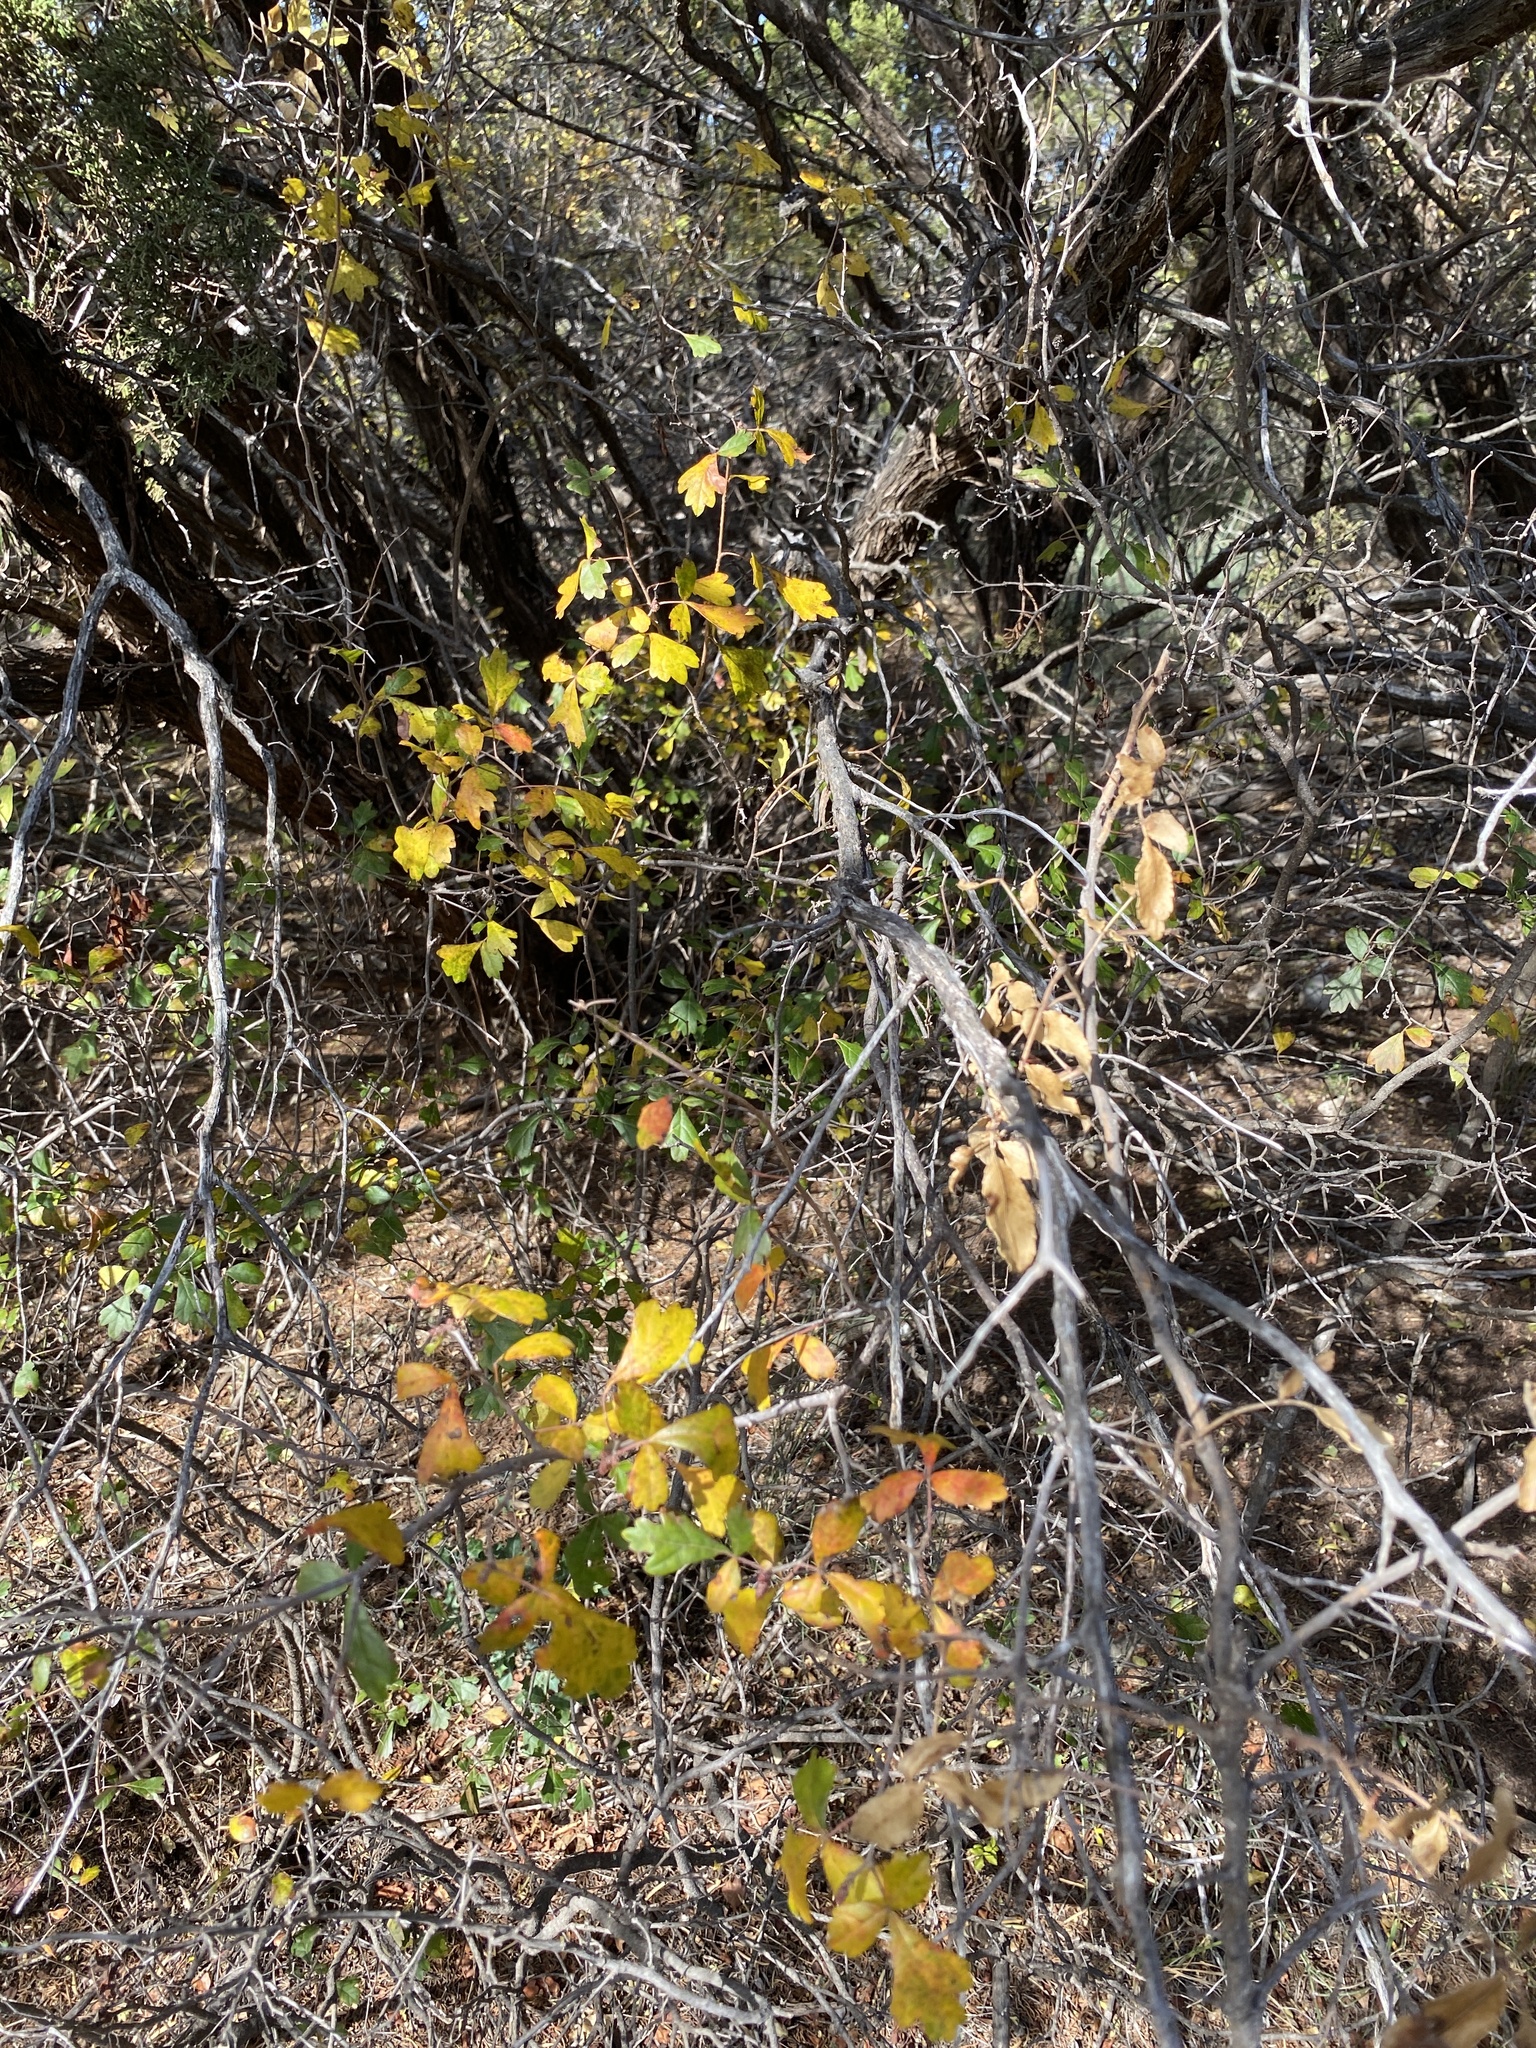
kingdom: Plantae
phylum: Tracheophyta
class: Magnoliopsida
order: Sapindales
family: Anacardiaceae
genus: Rhus
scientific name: Rhus aromatica
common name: Aromatic sumac
